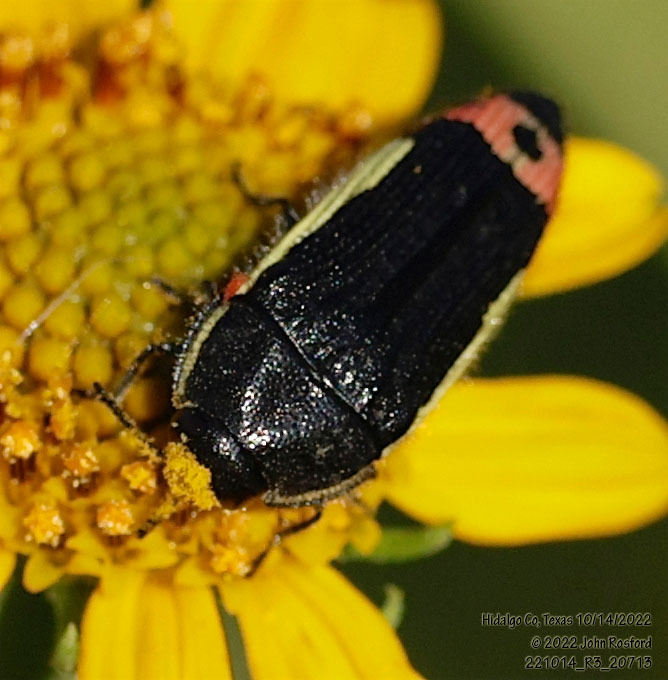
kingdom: Animalia
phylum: Arthropoda
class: Insecta
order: Coleoptera
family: Buprestidae
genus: Acmaeodera
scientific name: Acmaeodera flavomarginata
